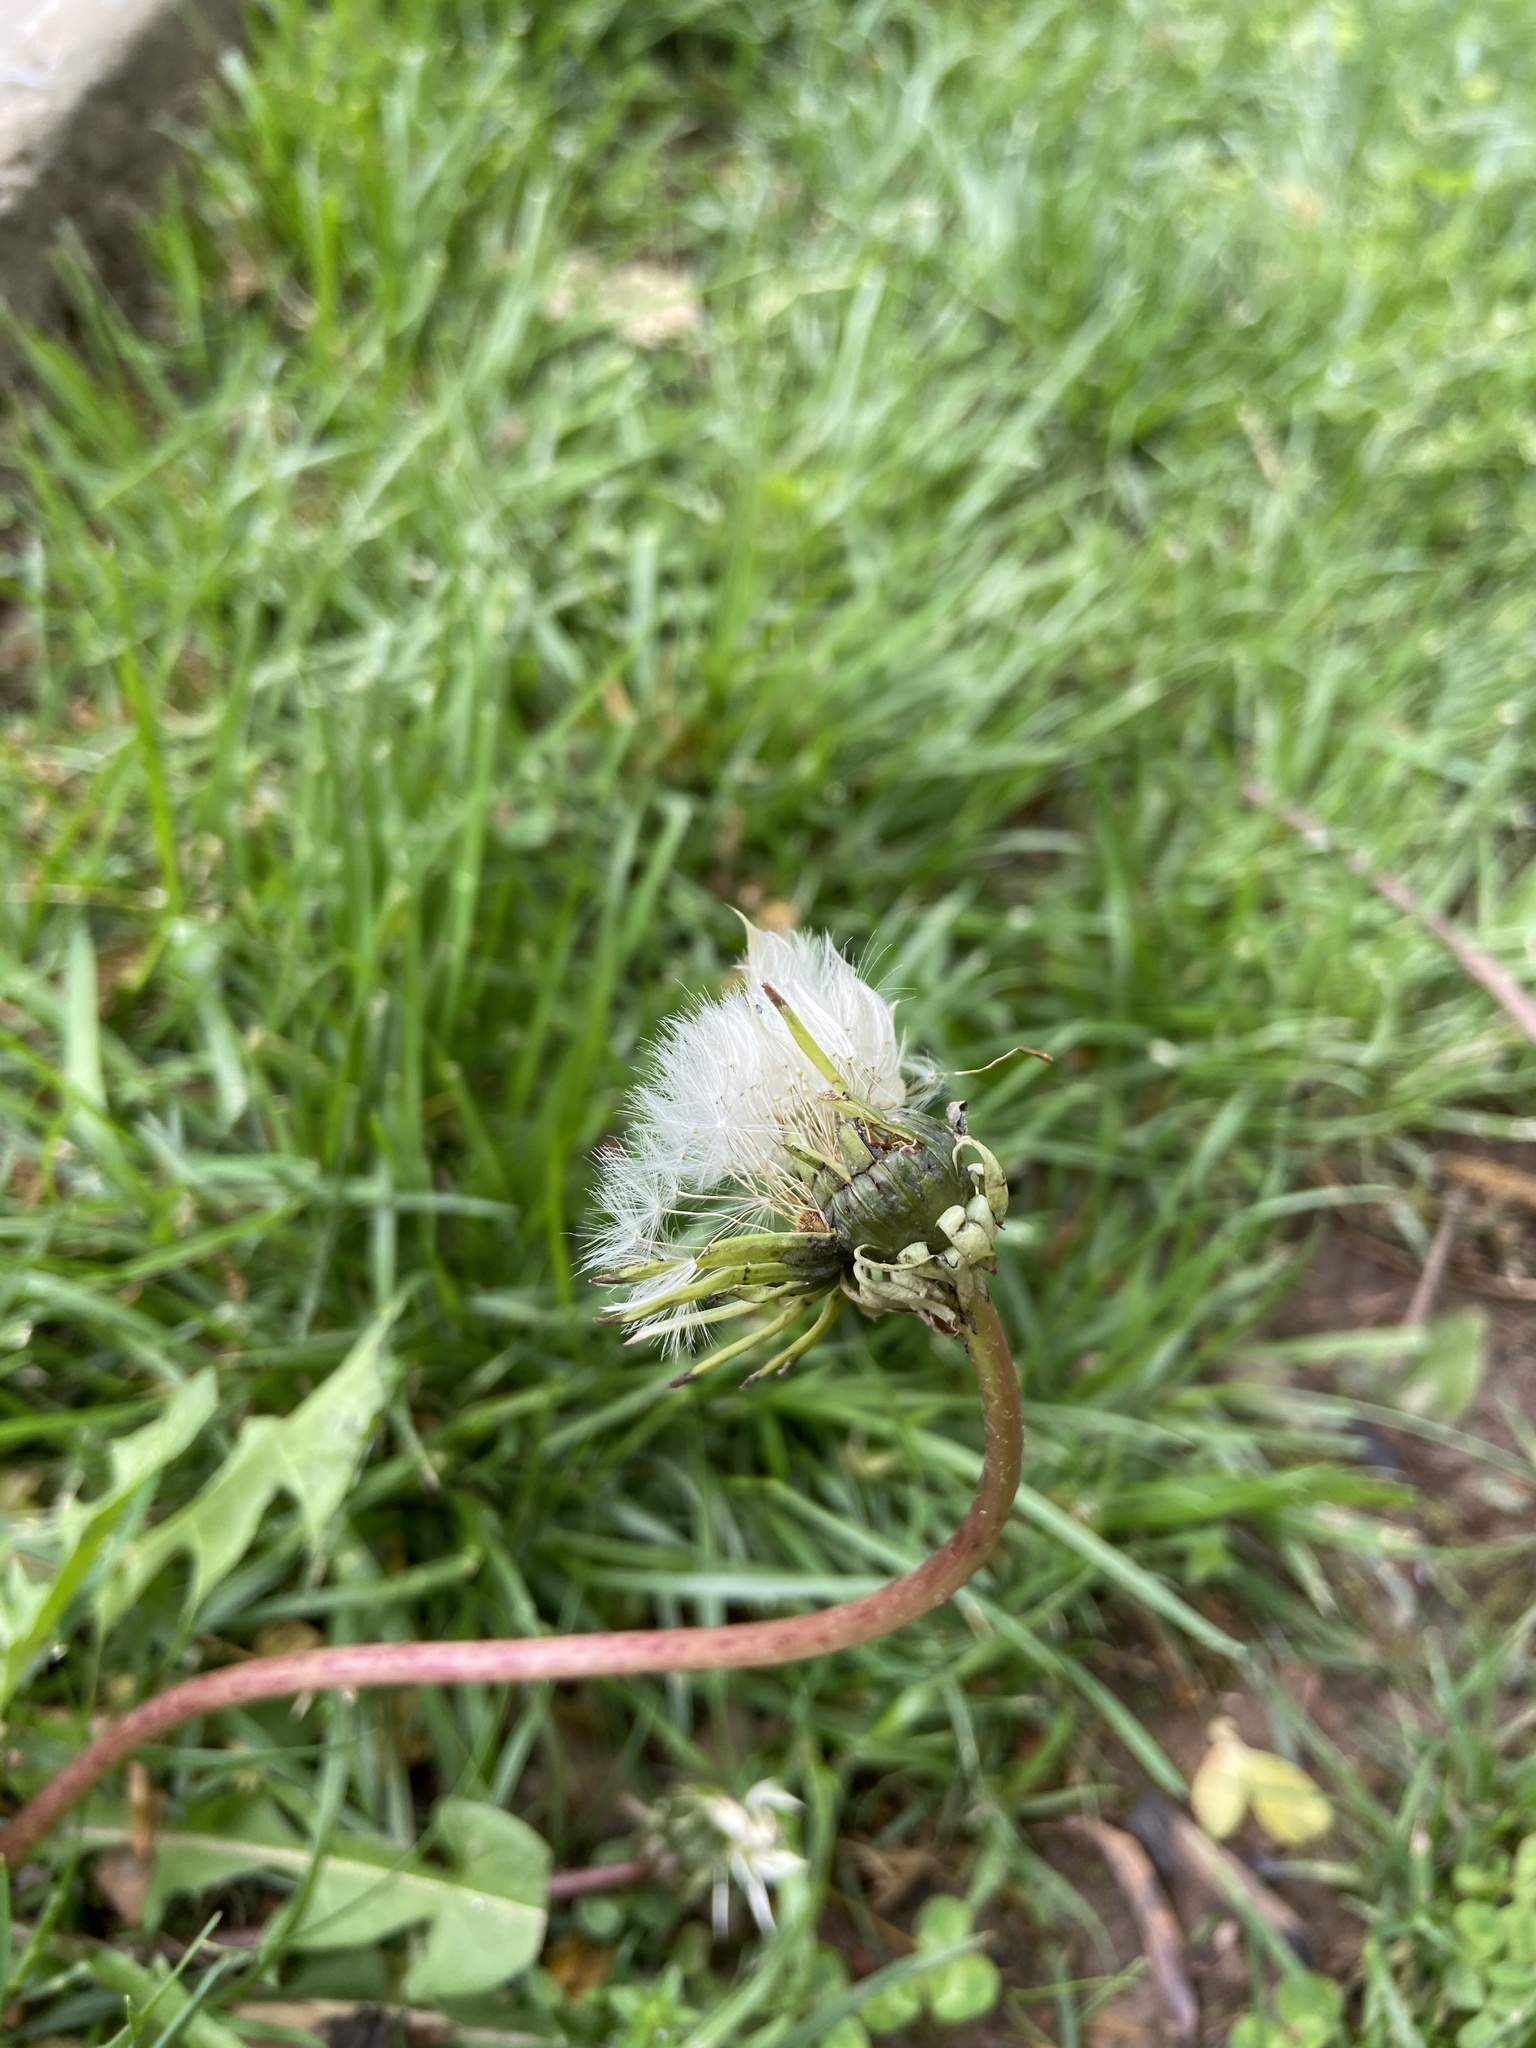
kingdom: Plantae
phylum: Tracheophyta
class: Magnoliopsida
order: Asterales
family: Asteraceae
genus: Taraxacum
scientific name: Taraxacum officinale
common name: Common dandelion
